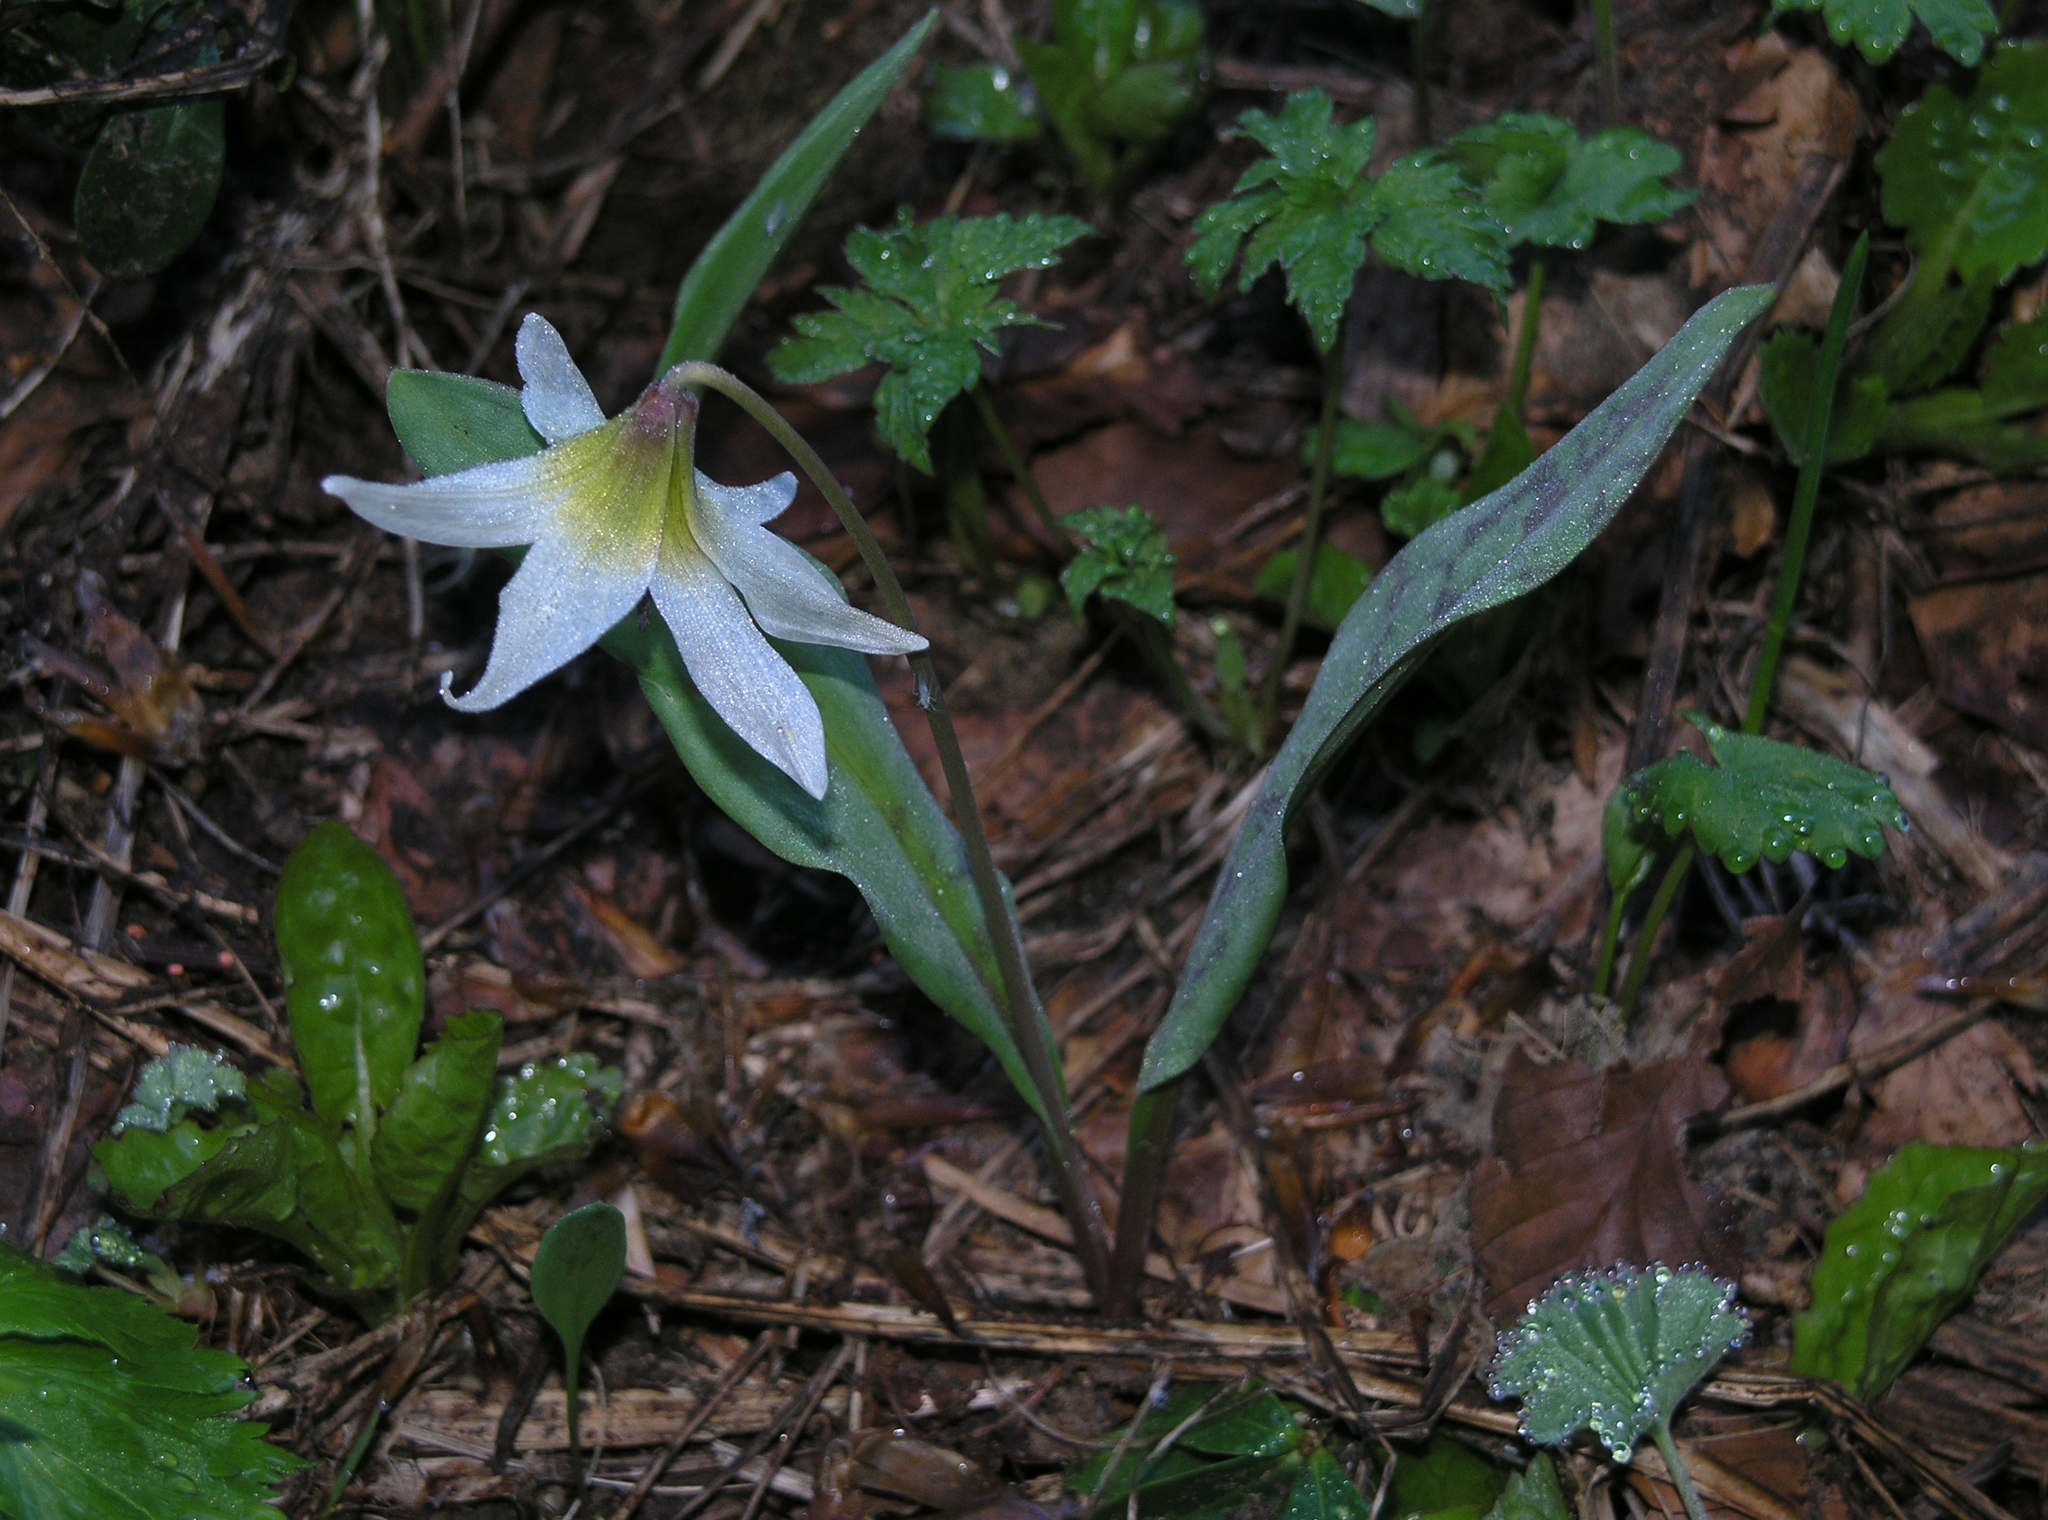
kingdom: Plantae
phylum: Tracheophyta
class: Liliopsida
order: Liliales
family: Liliaceae
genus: Erythronium
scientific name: Erythronium caucasicum
